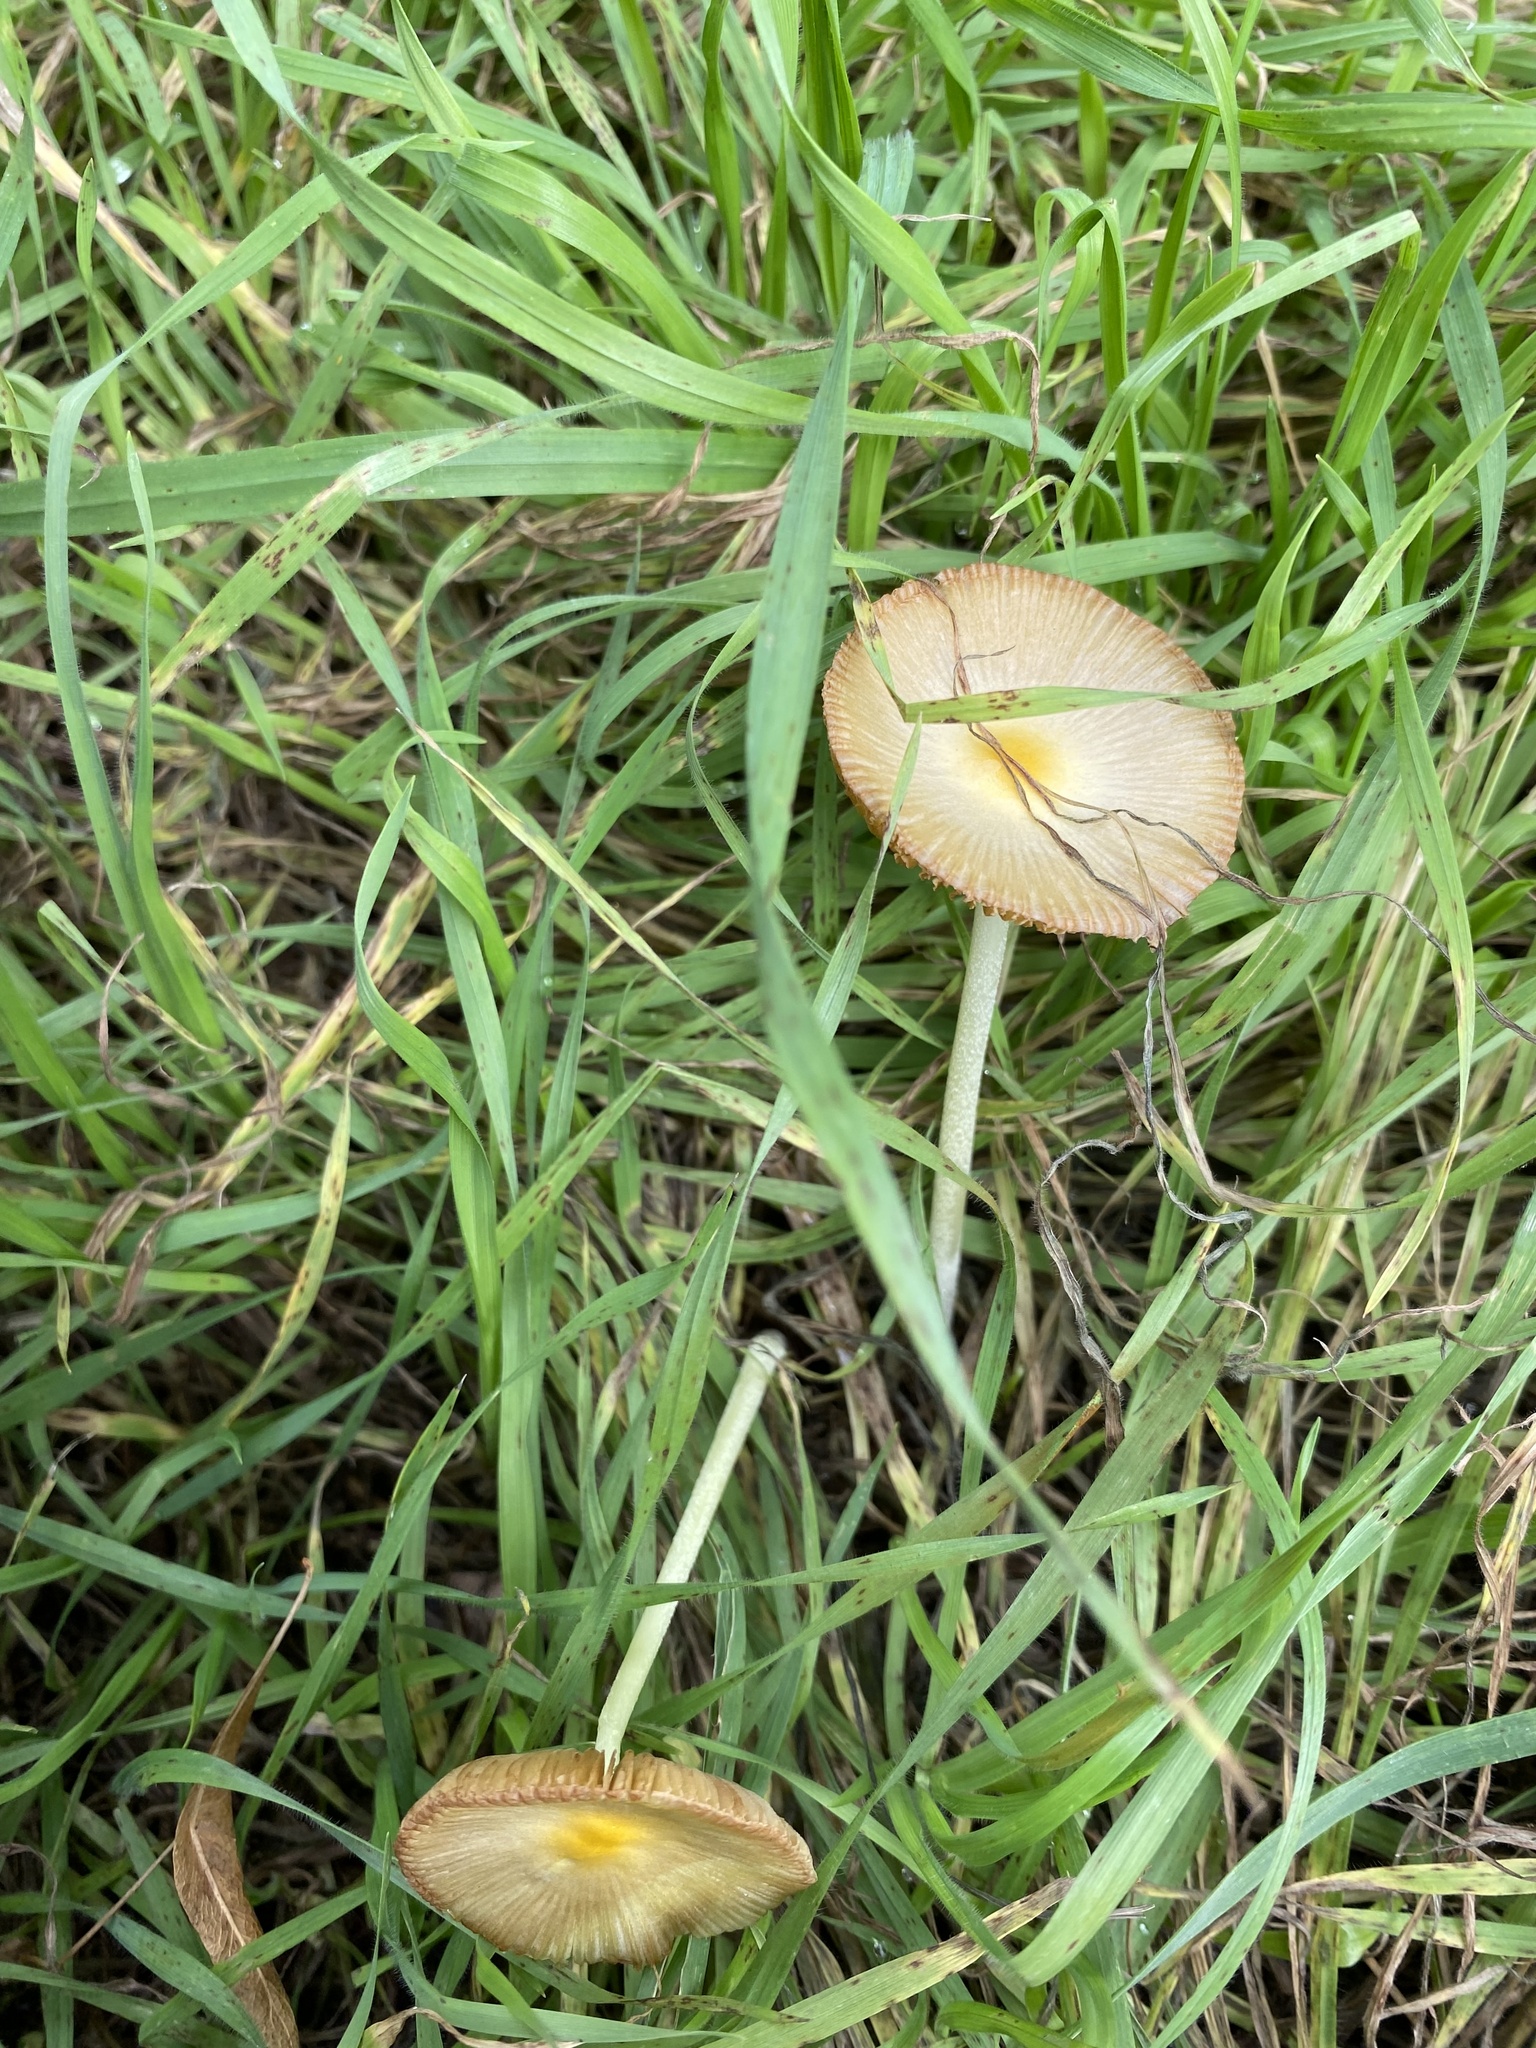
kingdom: Fungi
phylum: Basidiomycota
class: Agaricomycetes
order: Agaricales
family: Bolbitiaceae
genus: Bolbitius
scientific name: Bolbitius titubans
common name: Yellow fieldcap
